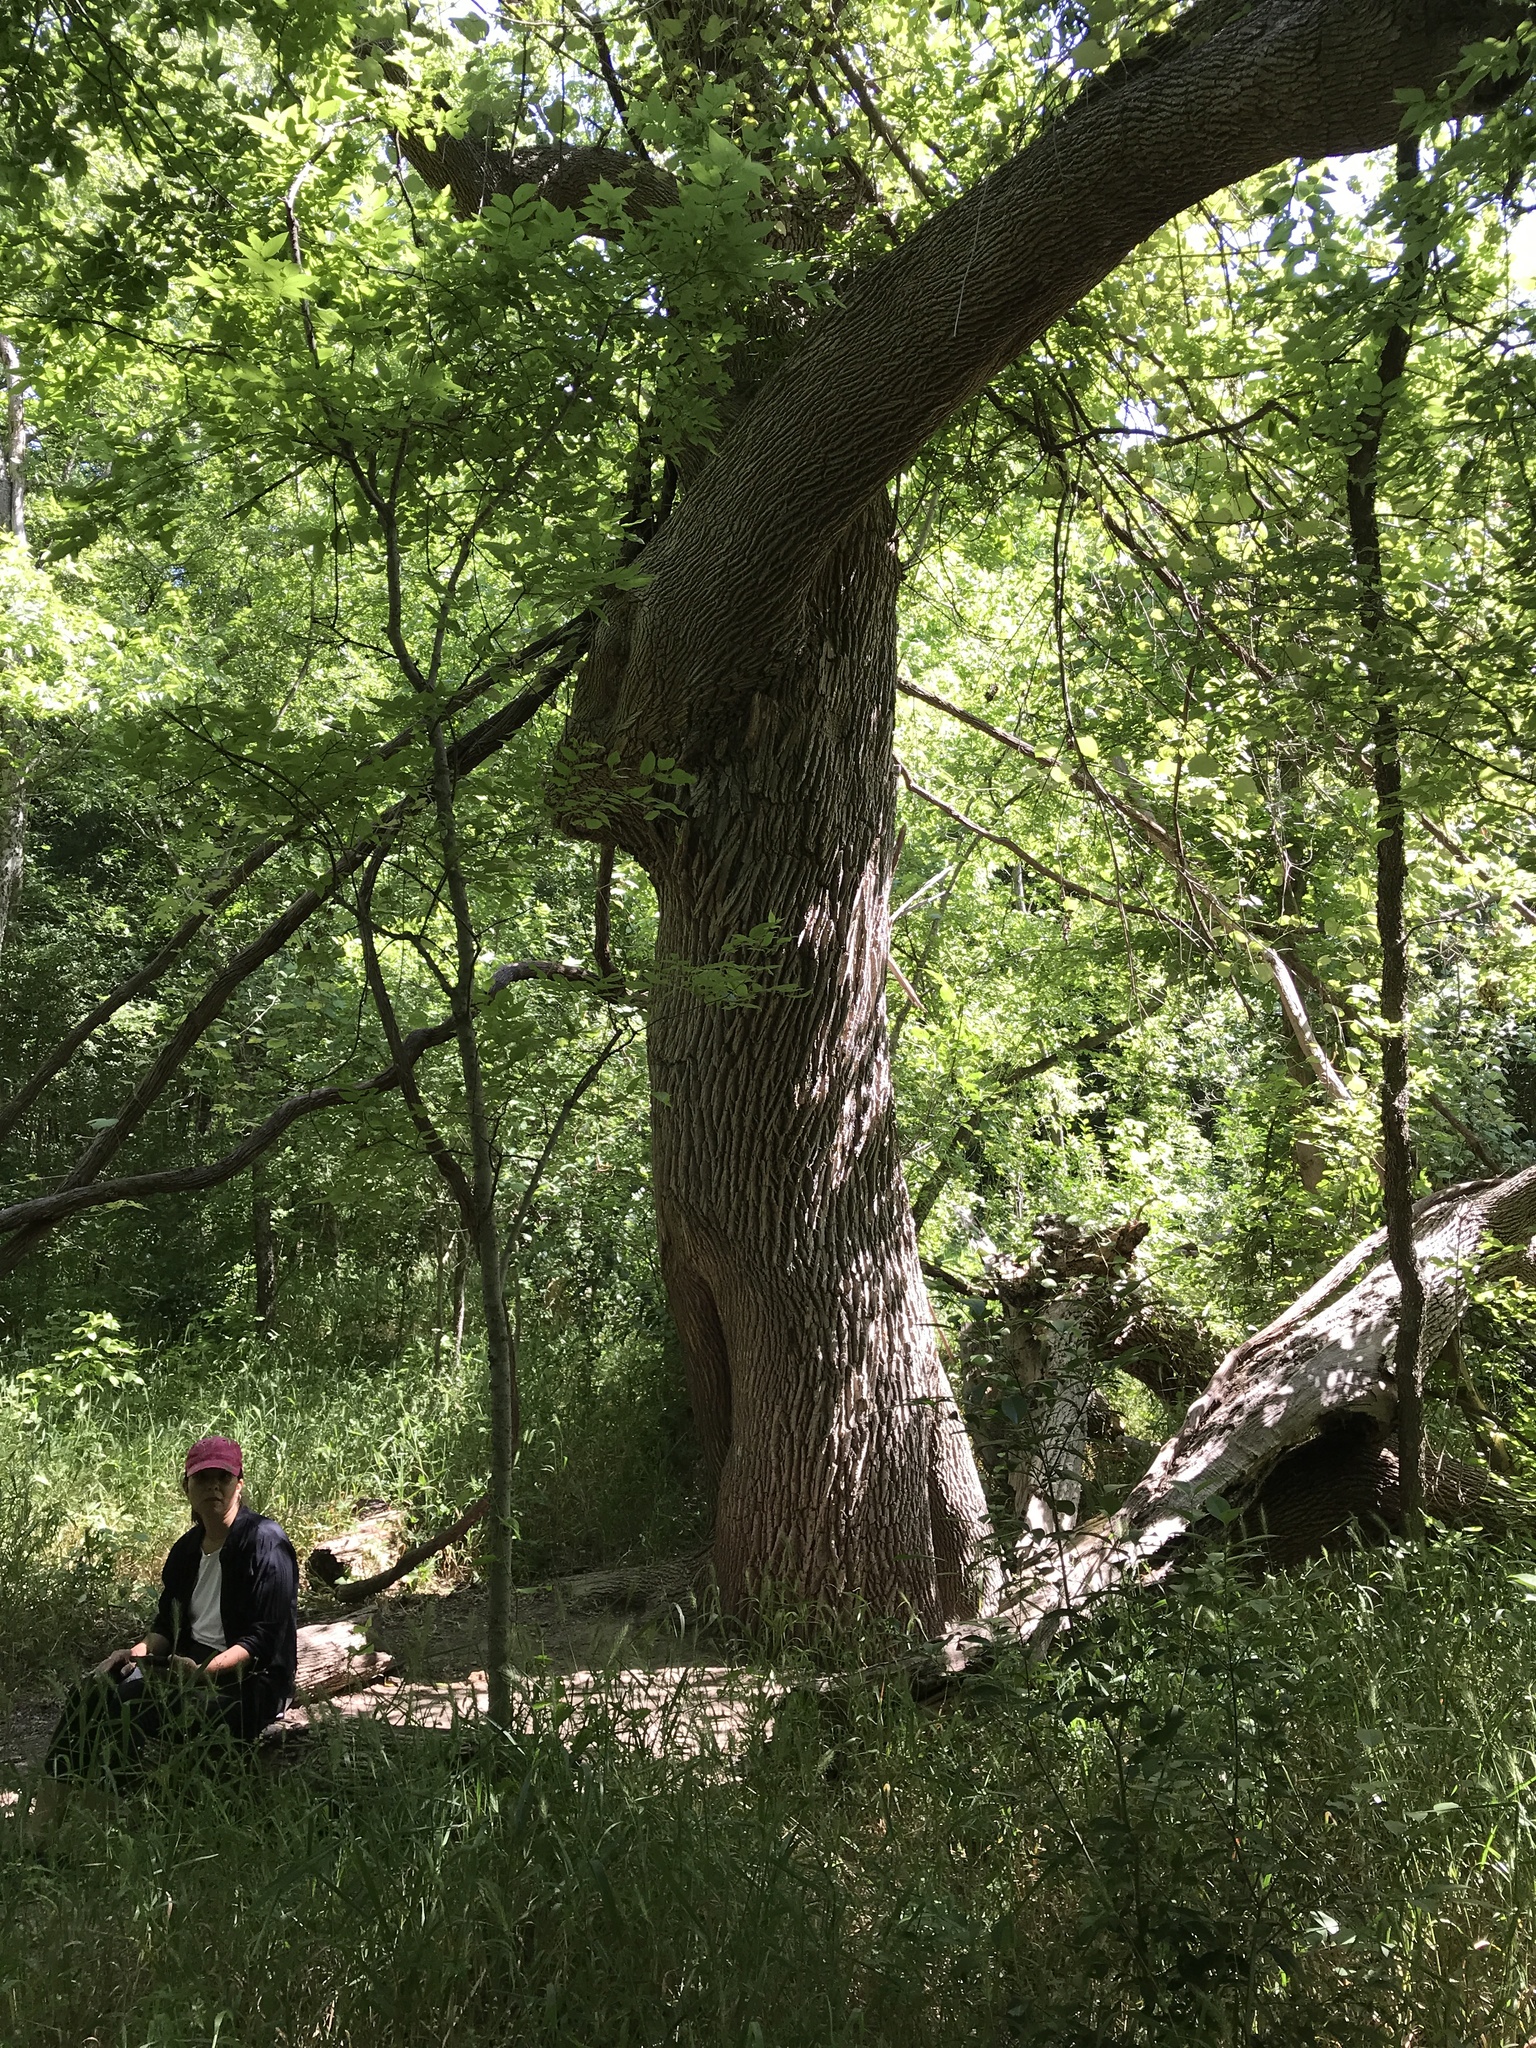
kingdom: Plantae
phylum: Tracheophyta
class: Magnoliopsida
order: Lamiales
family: Oleaceae
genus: Fraxinus
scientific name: Fraxinus pennsylvanica
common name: Green ash
